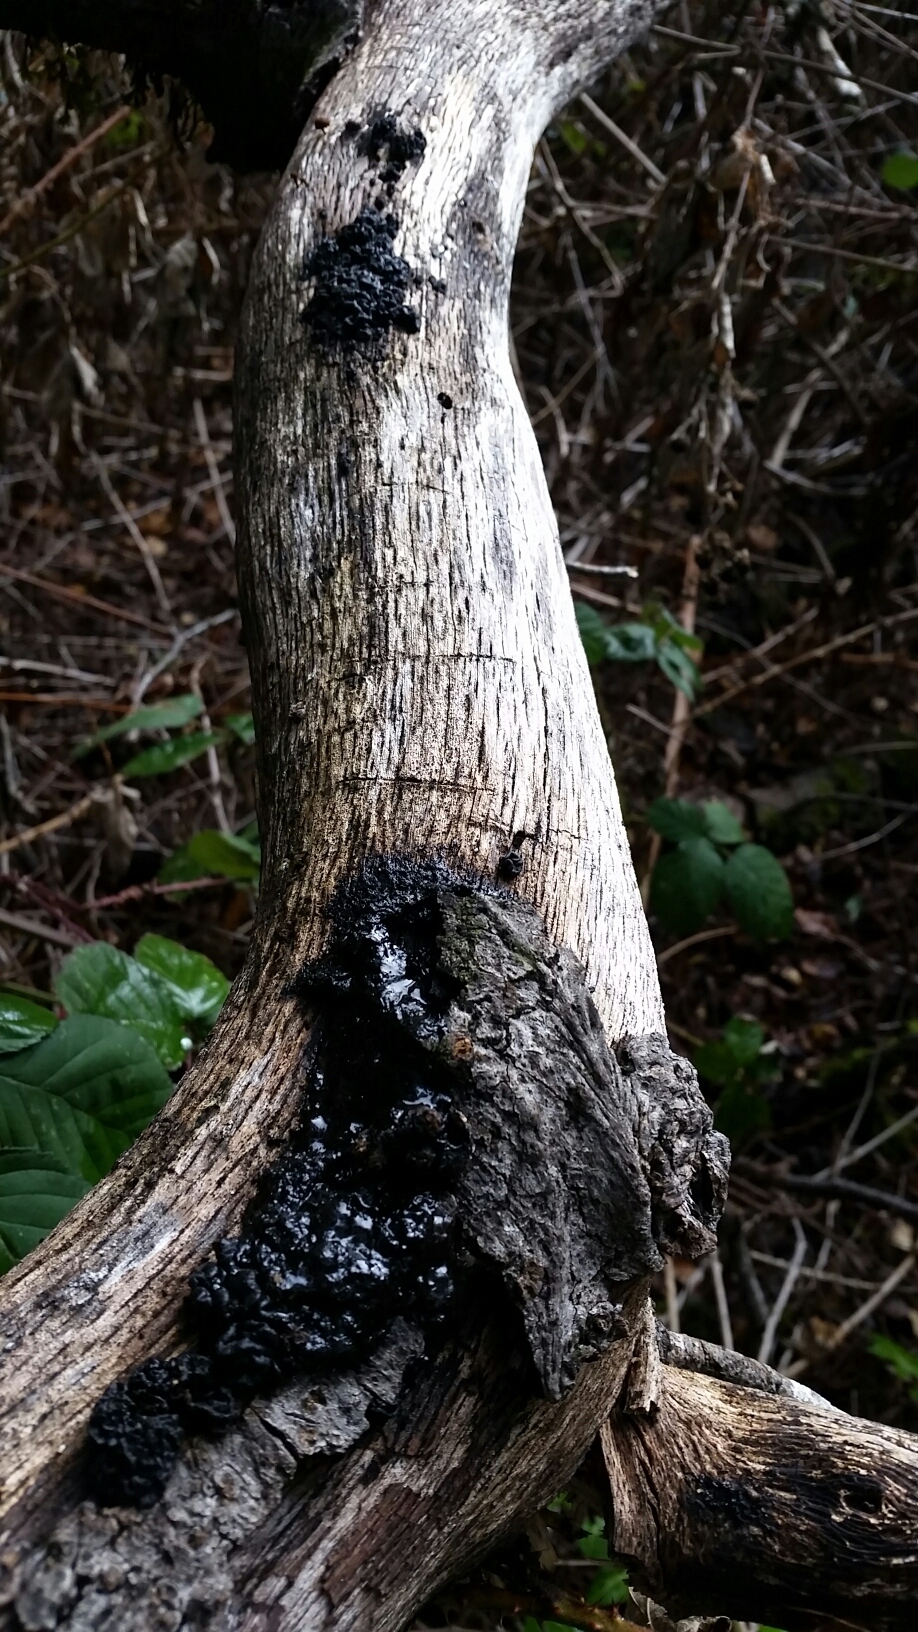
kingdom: Fungi
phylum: Basidiomycota
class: Agaricomycetes
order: Auriculariales
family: Auriculariaceae
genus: Exidia
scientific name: Exidia glandulosa
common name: Witches' butter
